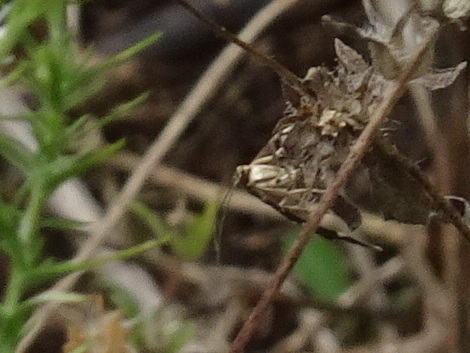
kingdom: Animalia
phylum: Arthropoda
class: Insecta
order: Lepidoptera
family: Crambidae
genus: Hymenia
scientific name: Hymenia perspectalis
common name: Spotted beet webworm
